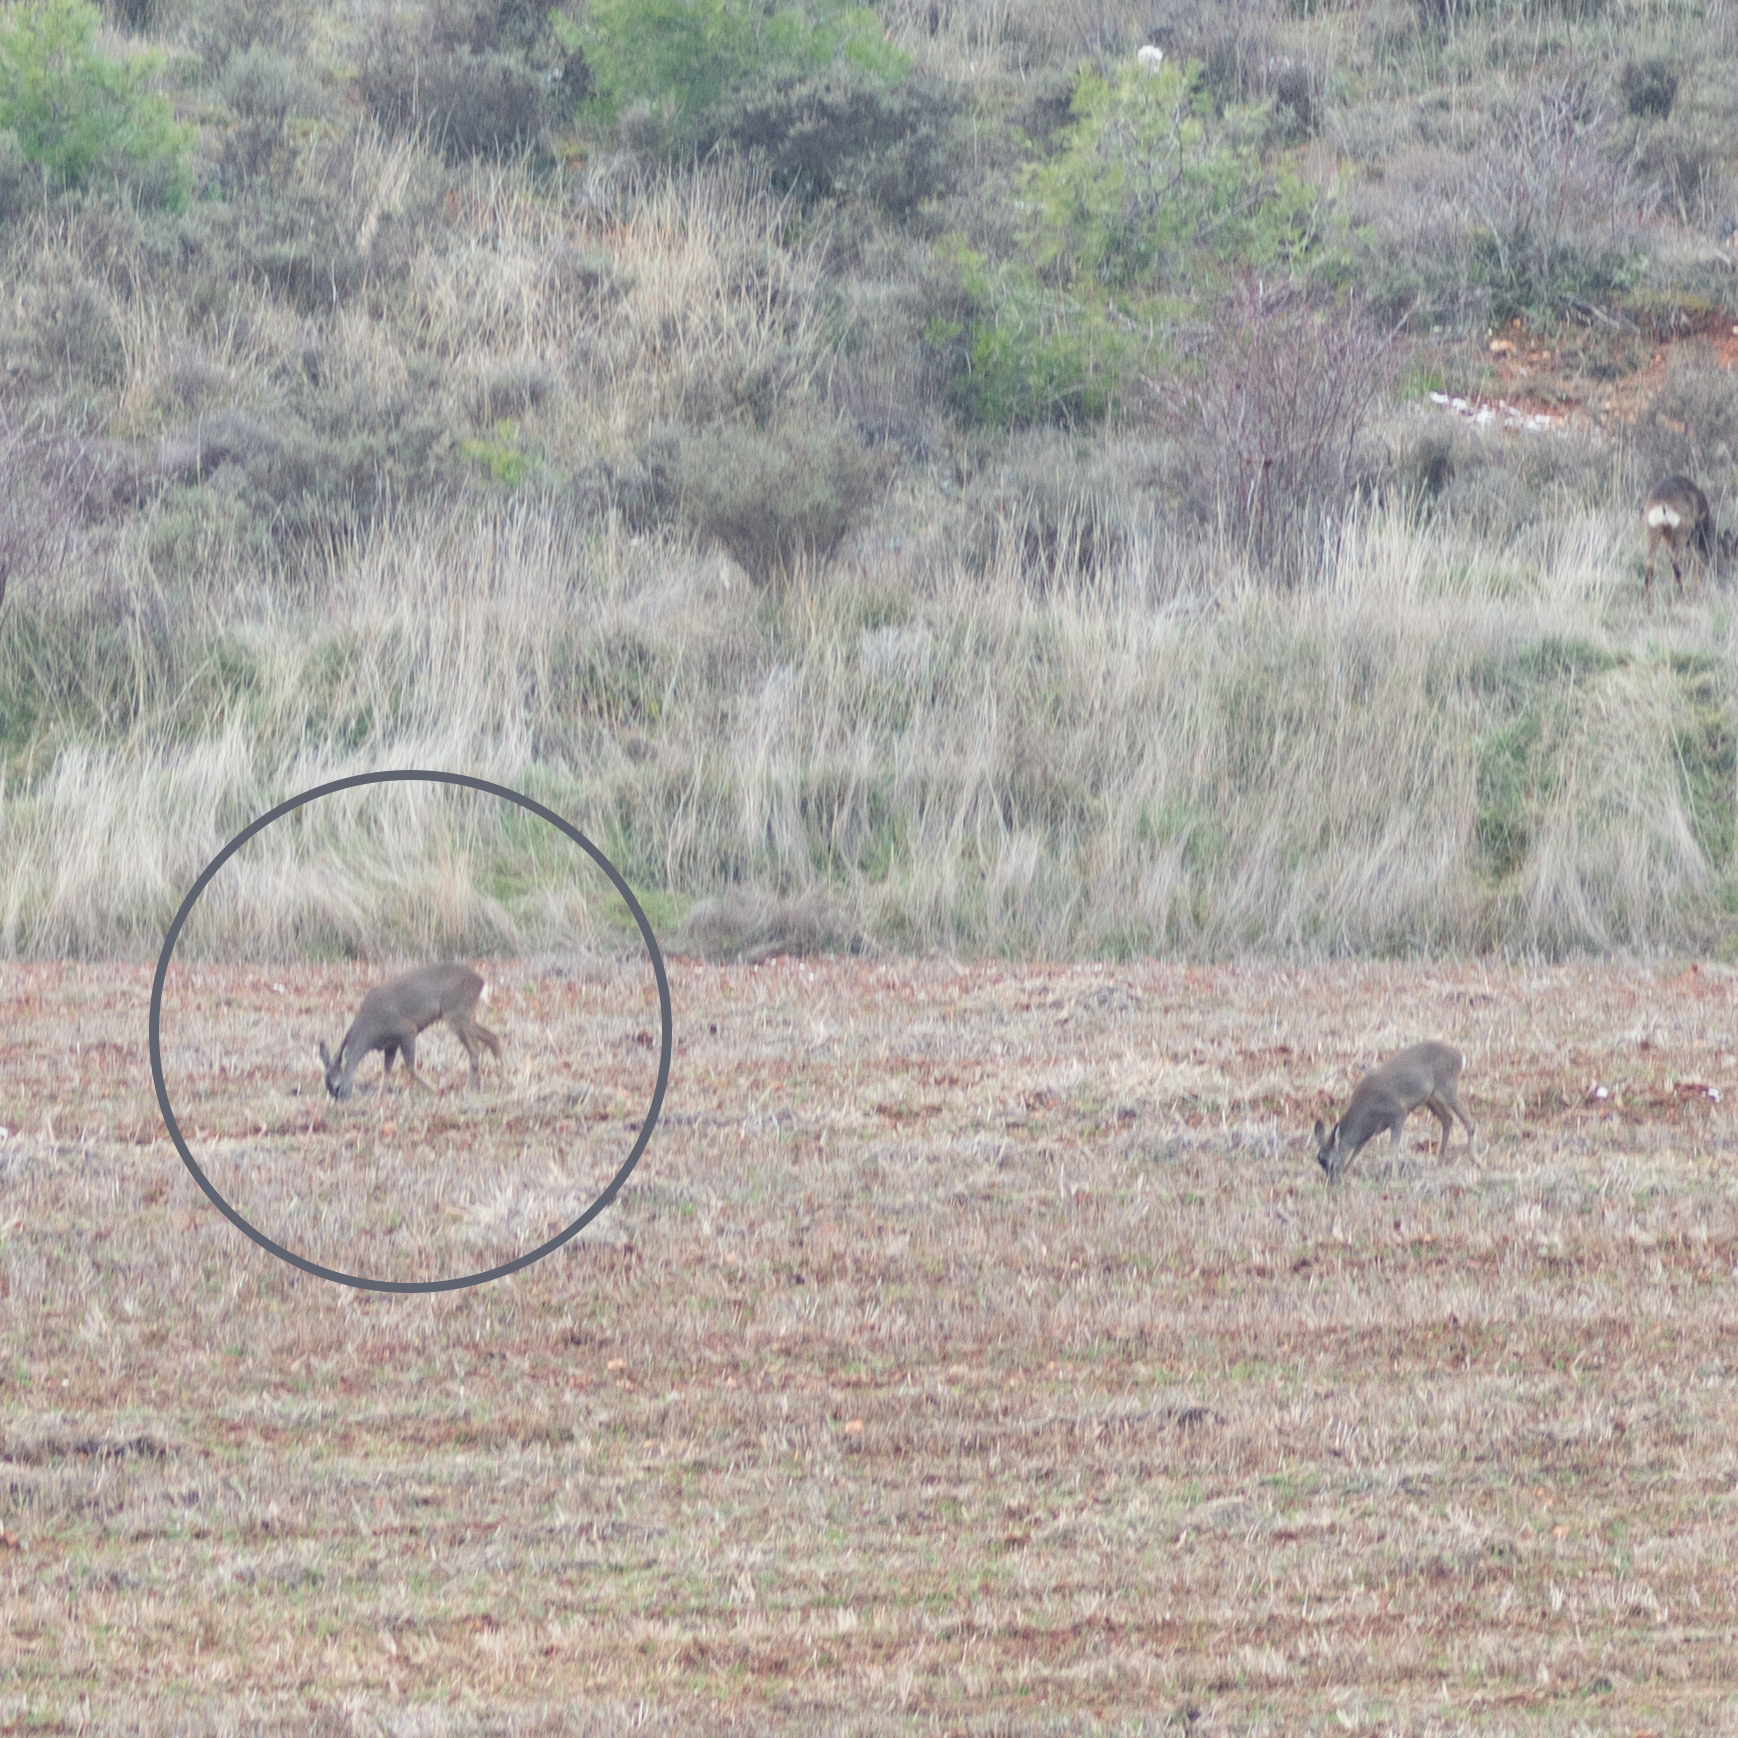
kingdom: Animalia
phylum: Chordata
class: Mammalia
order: Artiodactyla
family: Cervidae
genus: Capreolus
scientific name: Capreolus capreolus
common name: Western roe deer
